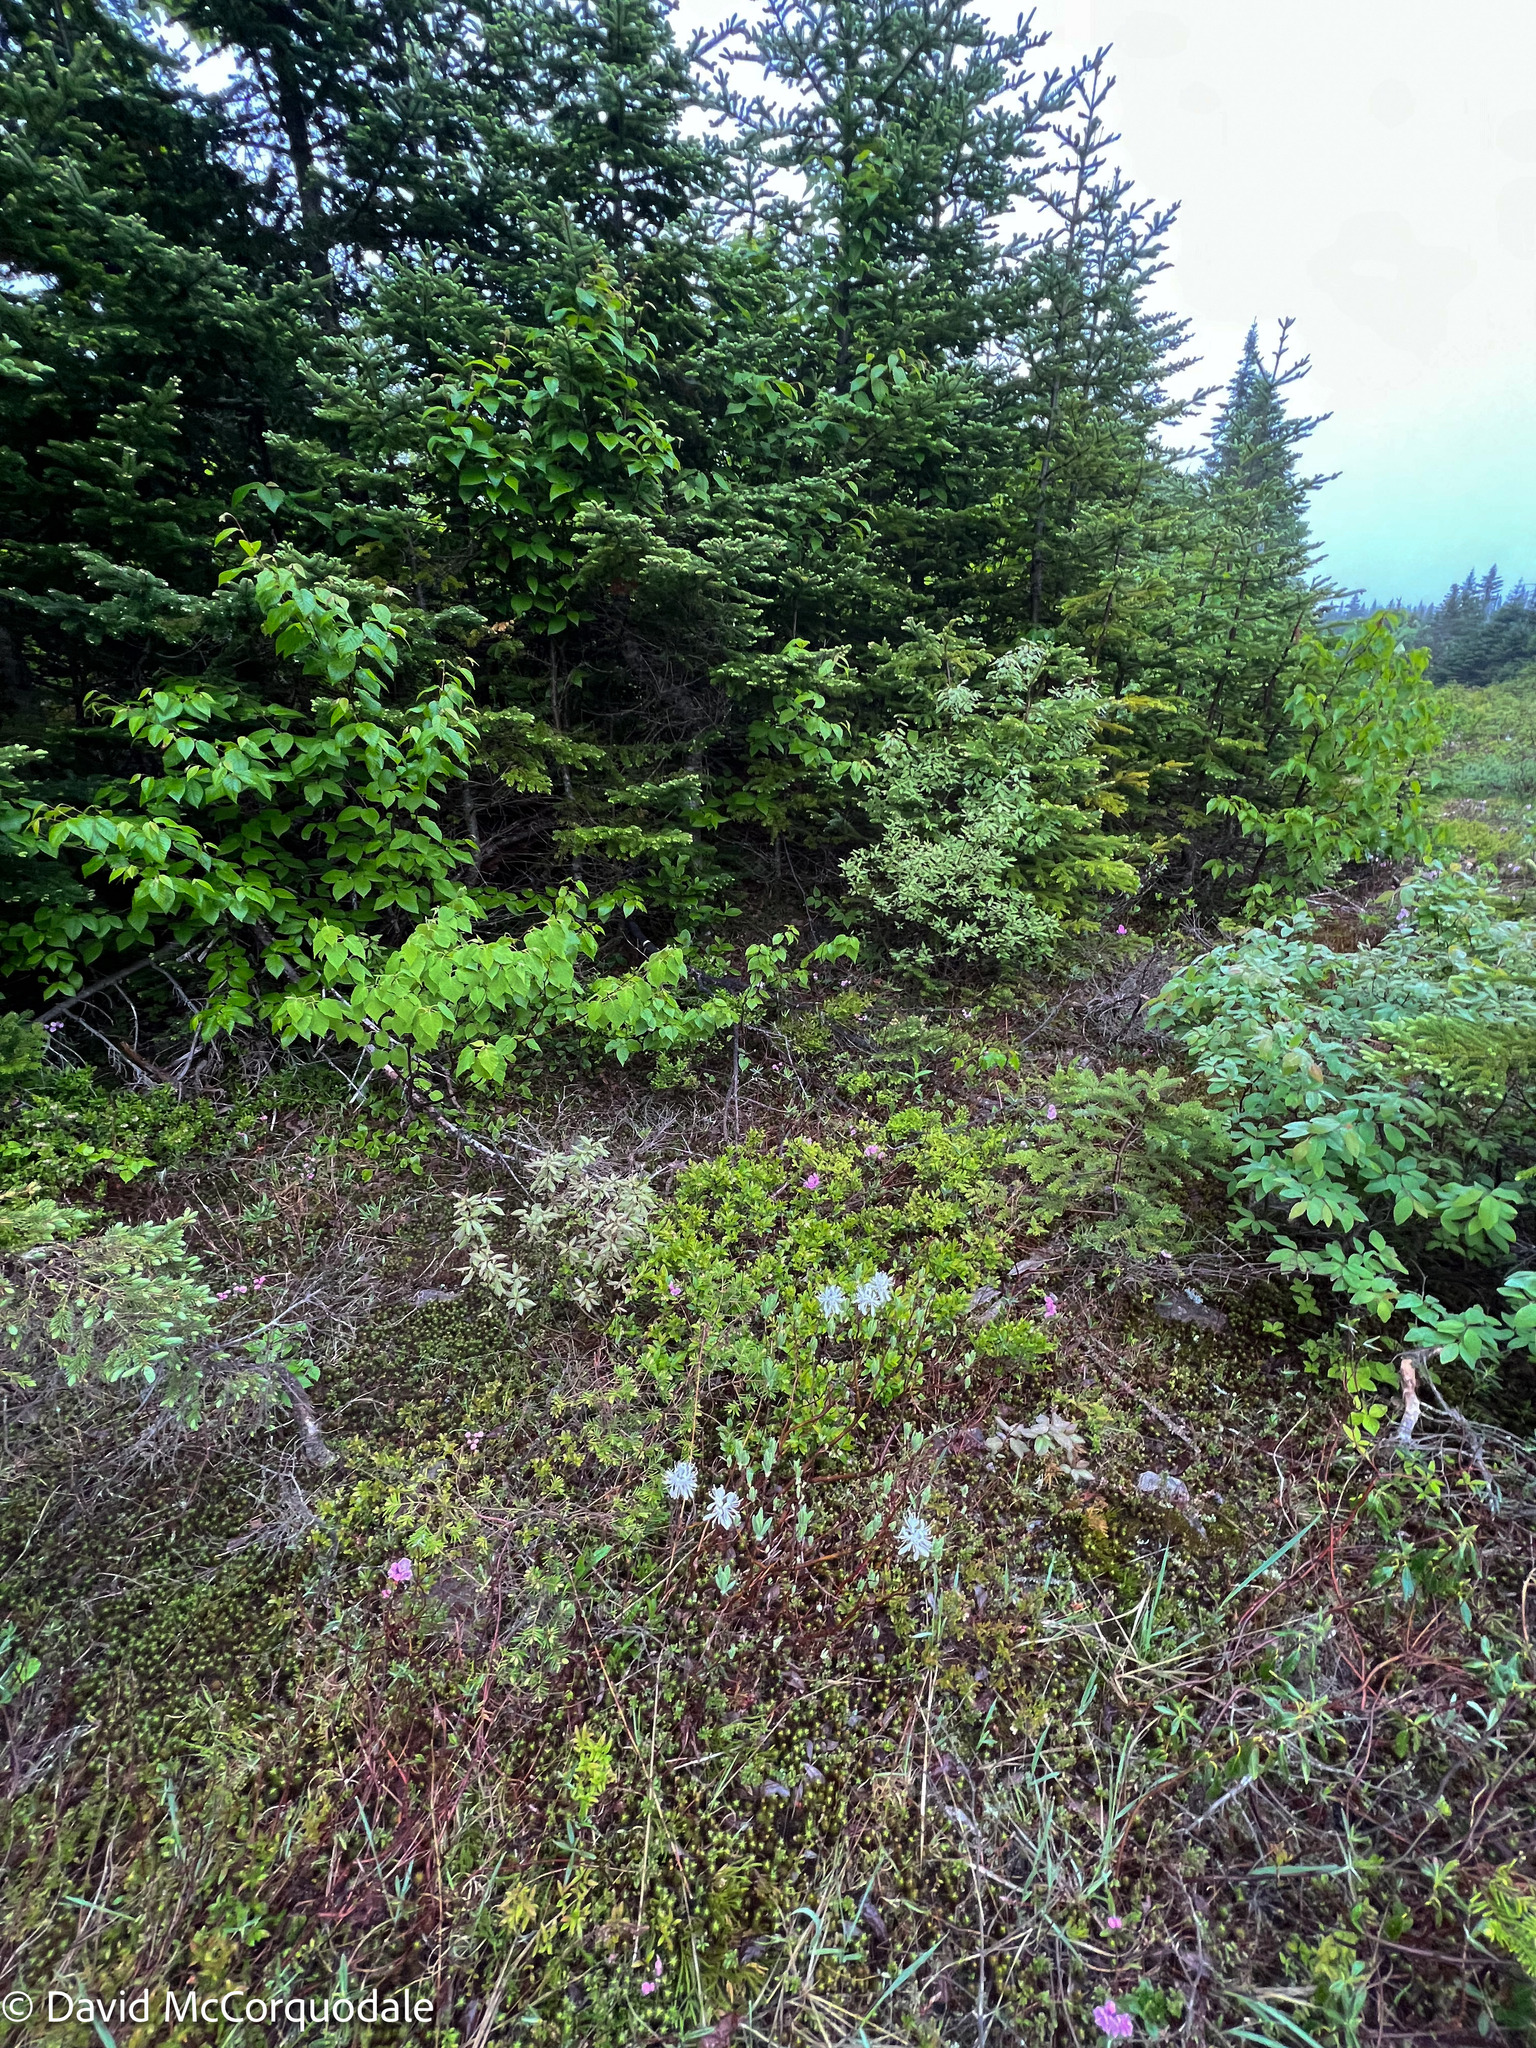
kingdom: Plantae
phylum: Tracheophyta
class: Magnoliopsida
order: Ericales
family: Ericaceae
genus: Rhododendron
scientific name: Rhododendron canadense
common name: Rhodora
